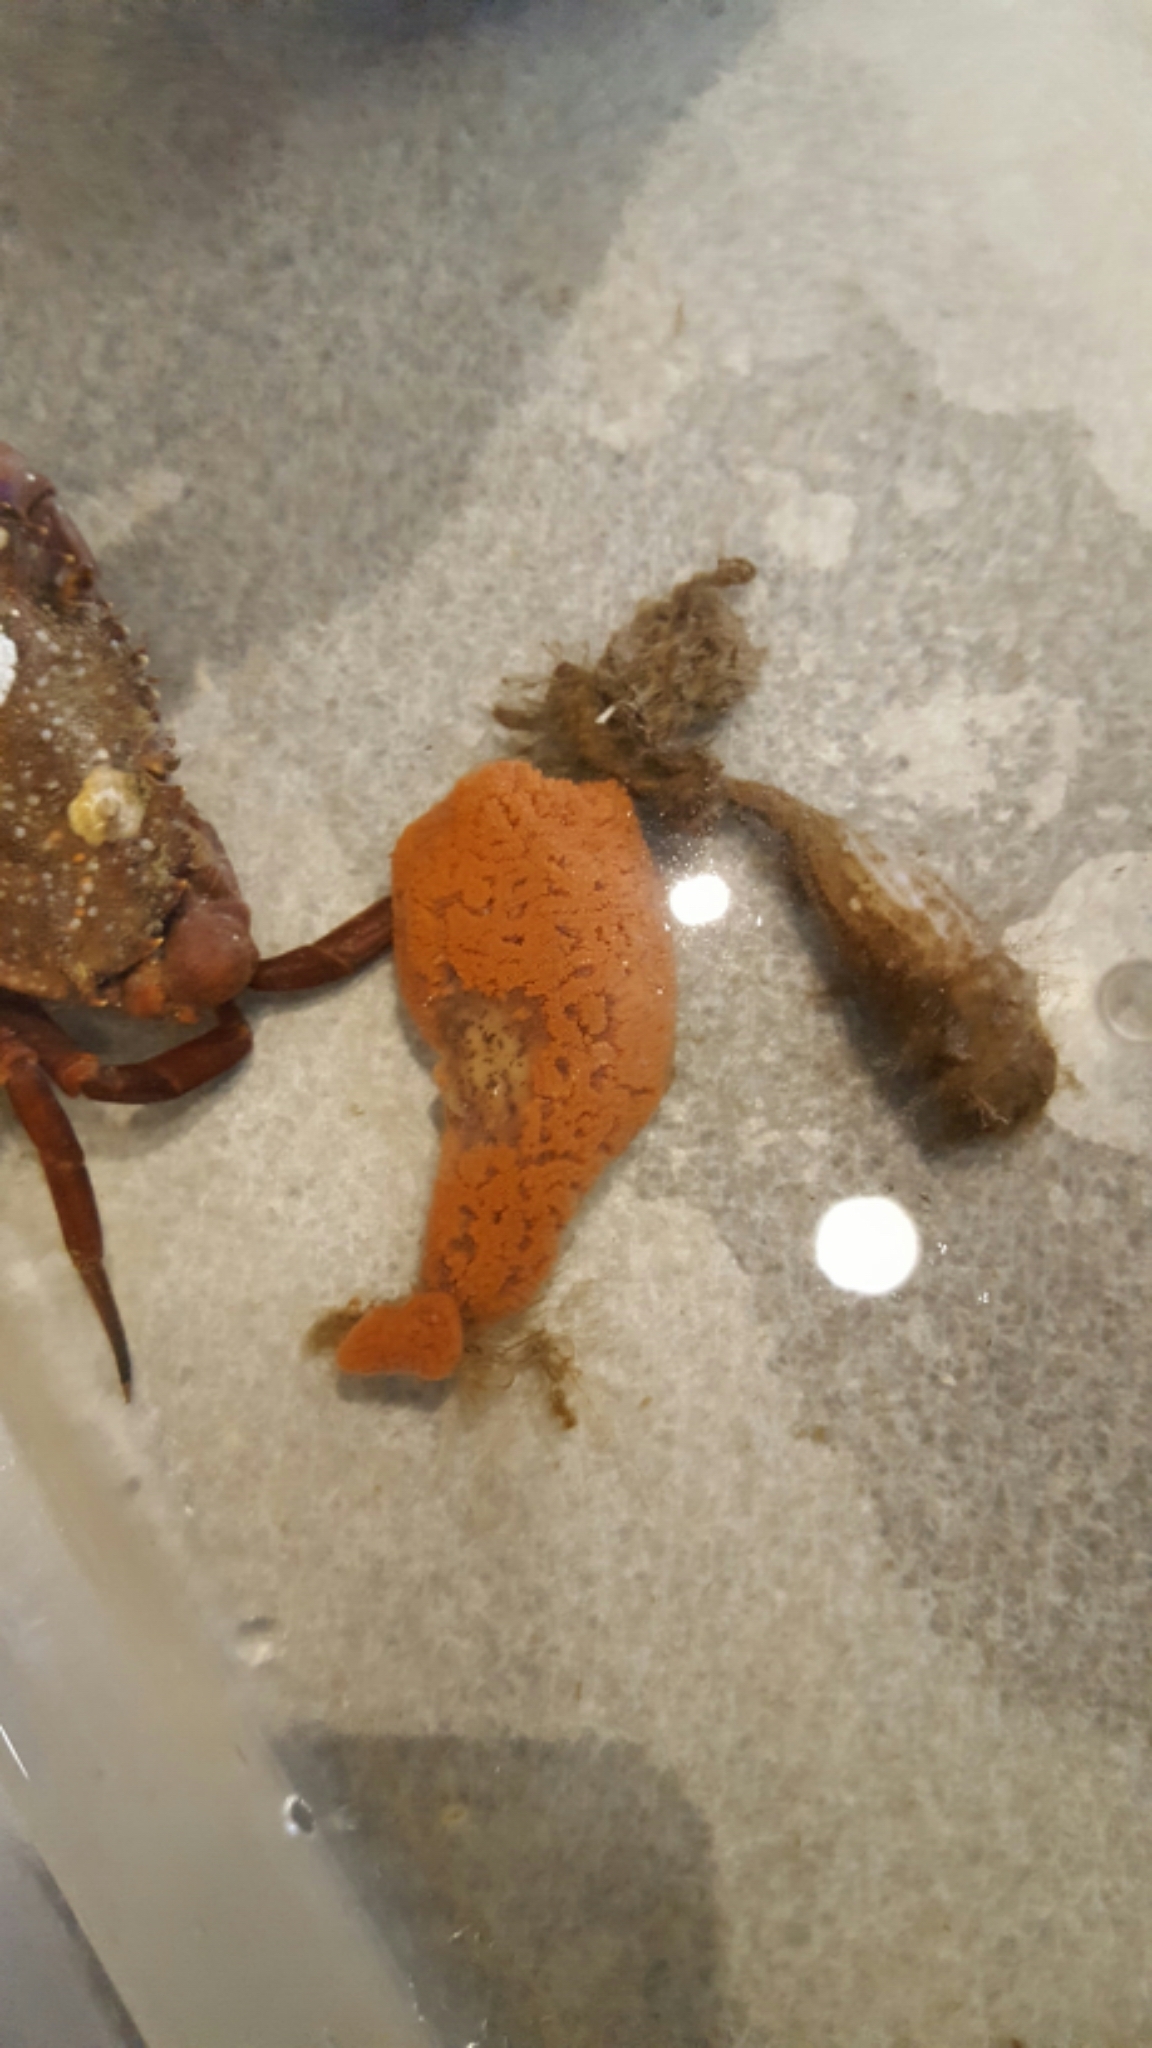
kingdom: Animalia
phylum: Chordata
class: Ascidiacea
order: Stolidobranchia
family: Styelidae
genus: Botrylloides
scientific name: Botrylloides violaceus
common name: Colonial sea squirt
